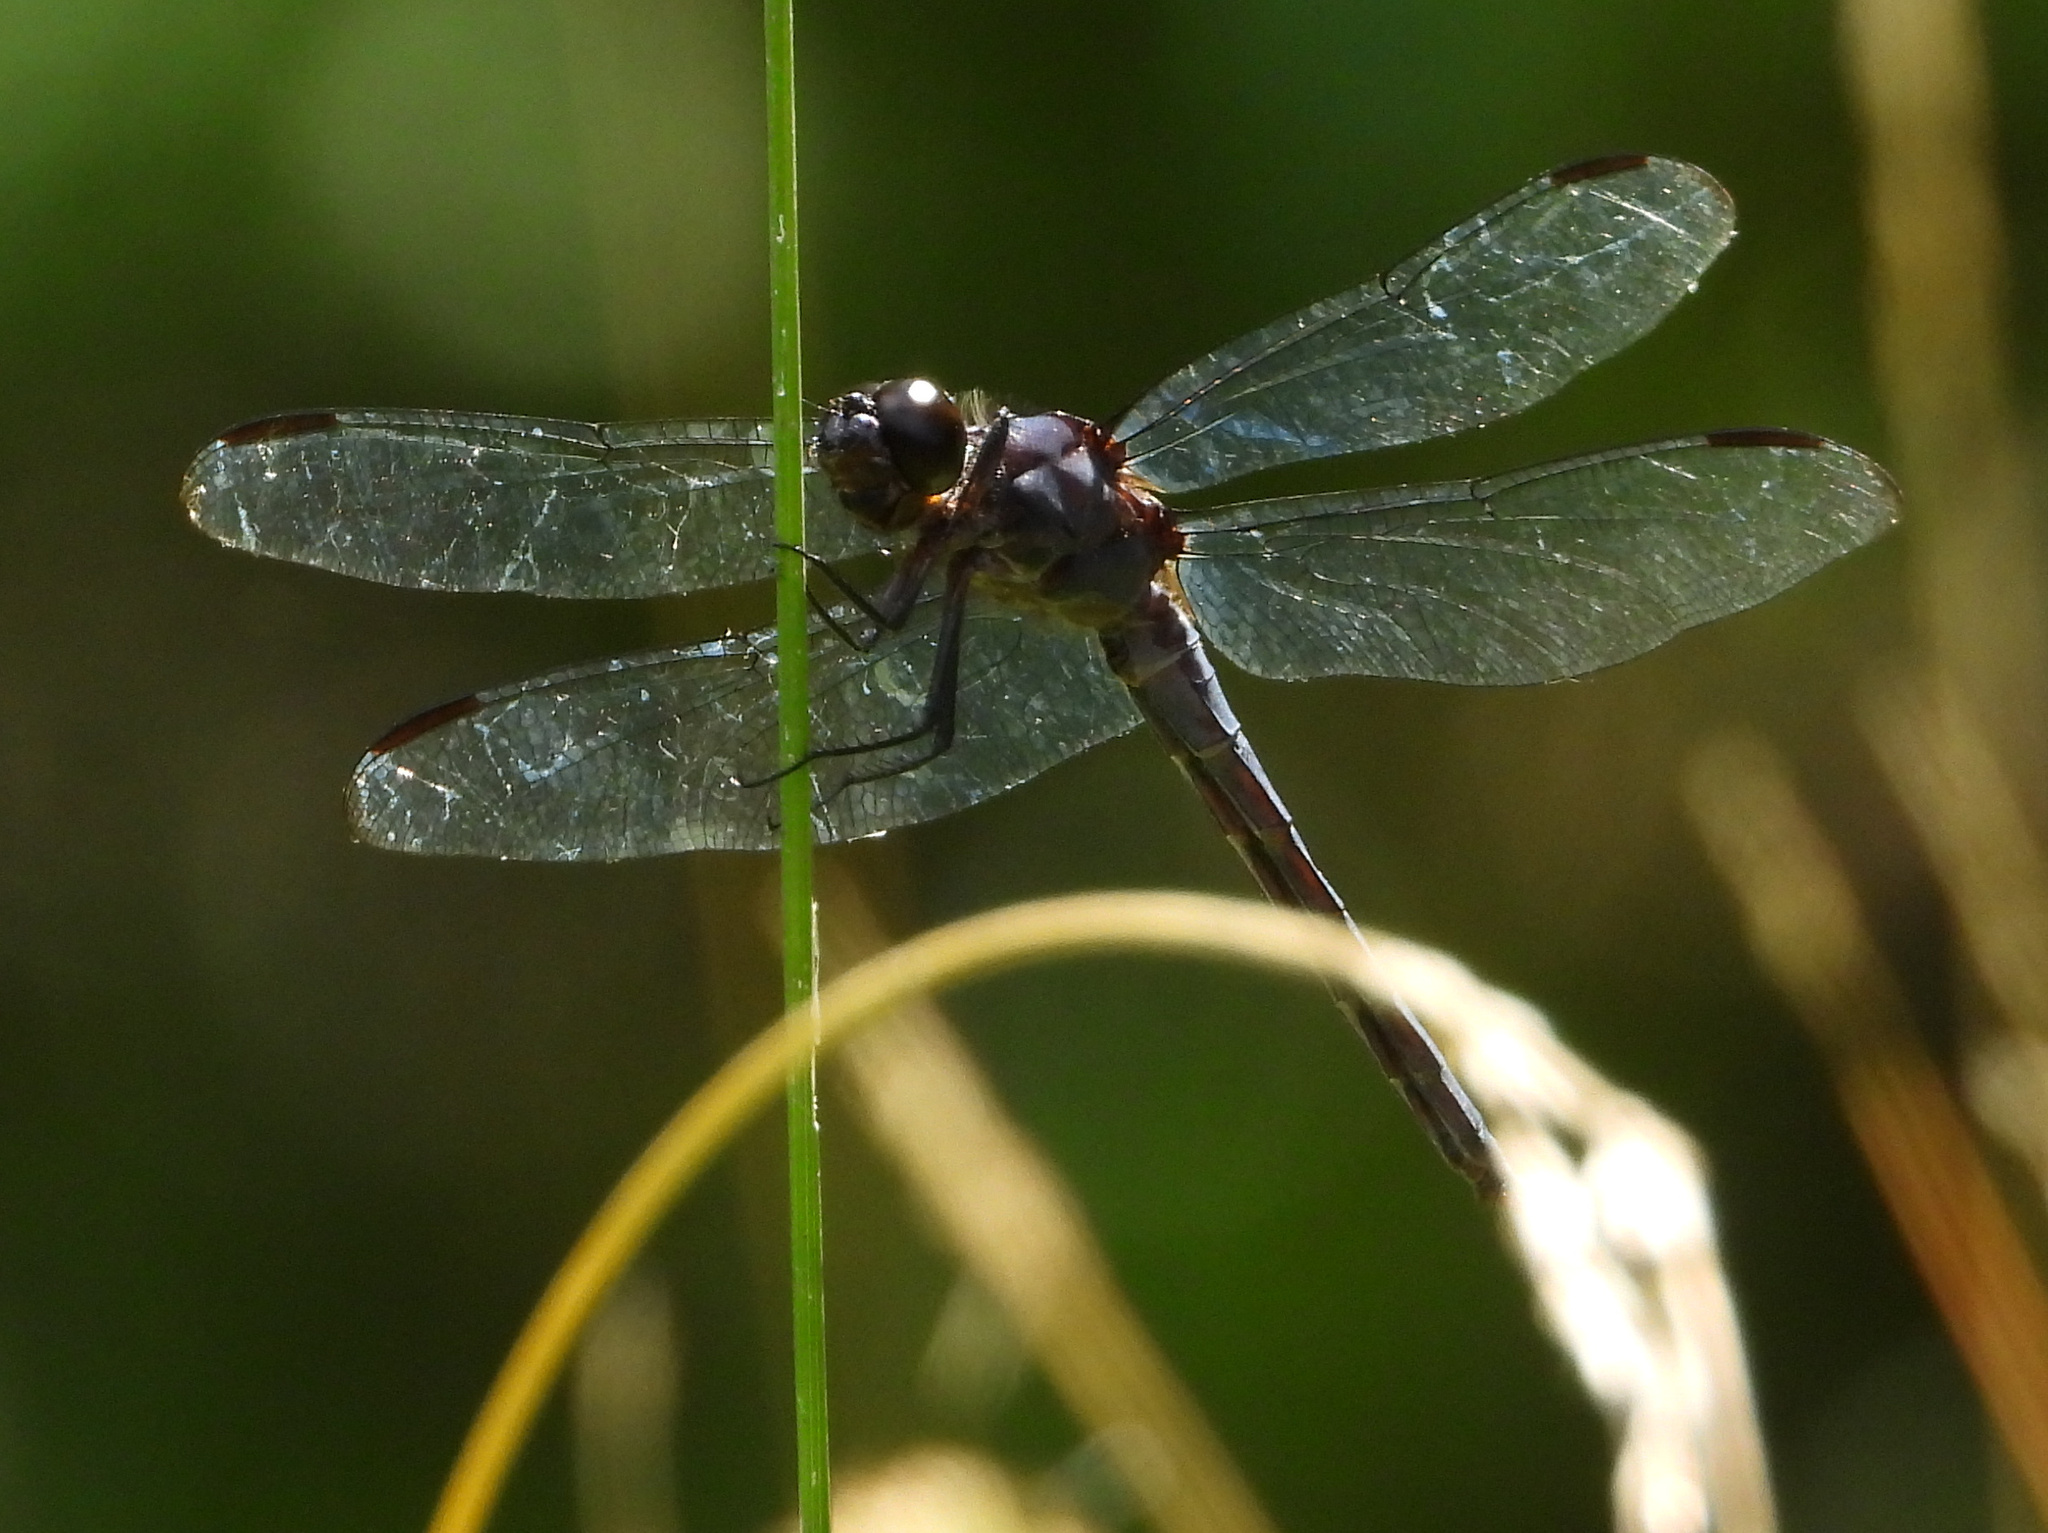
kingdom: Animalia
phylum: Arthropoda
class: Insecta
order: Odonata
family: Libellulidae
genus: Libellula
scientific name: Libellula incesta
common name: Slaty skimmer
